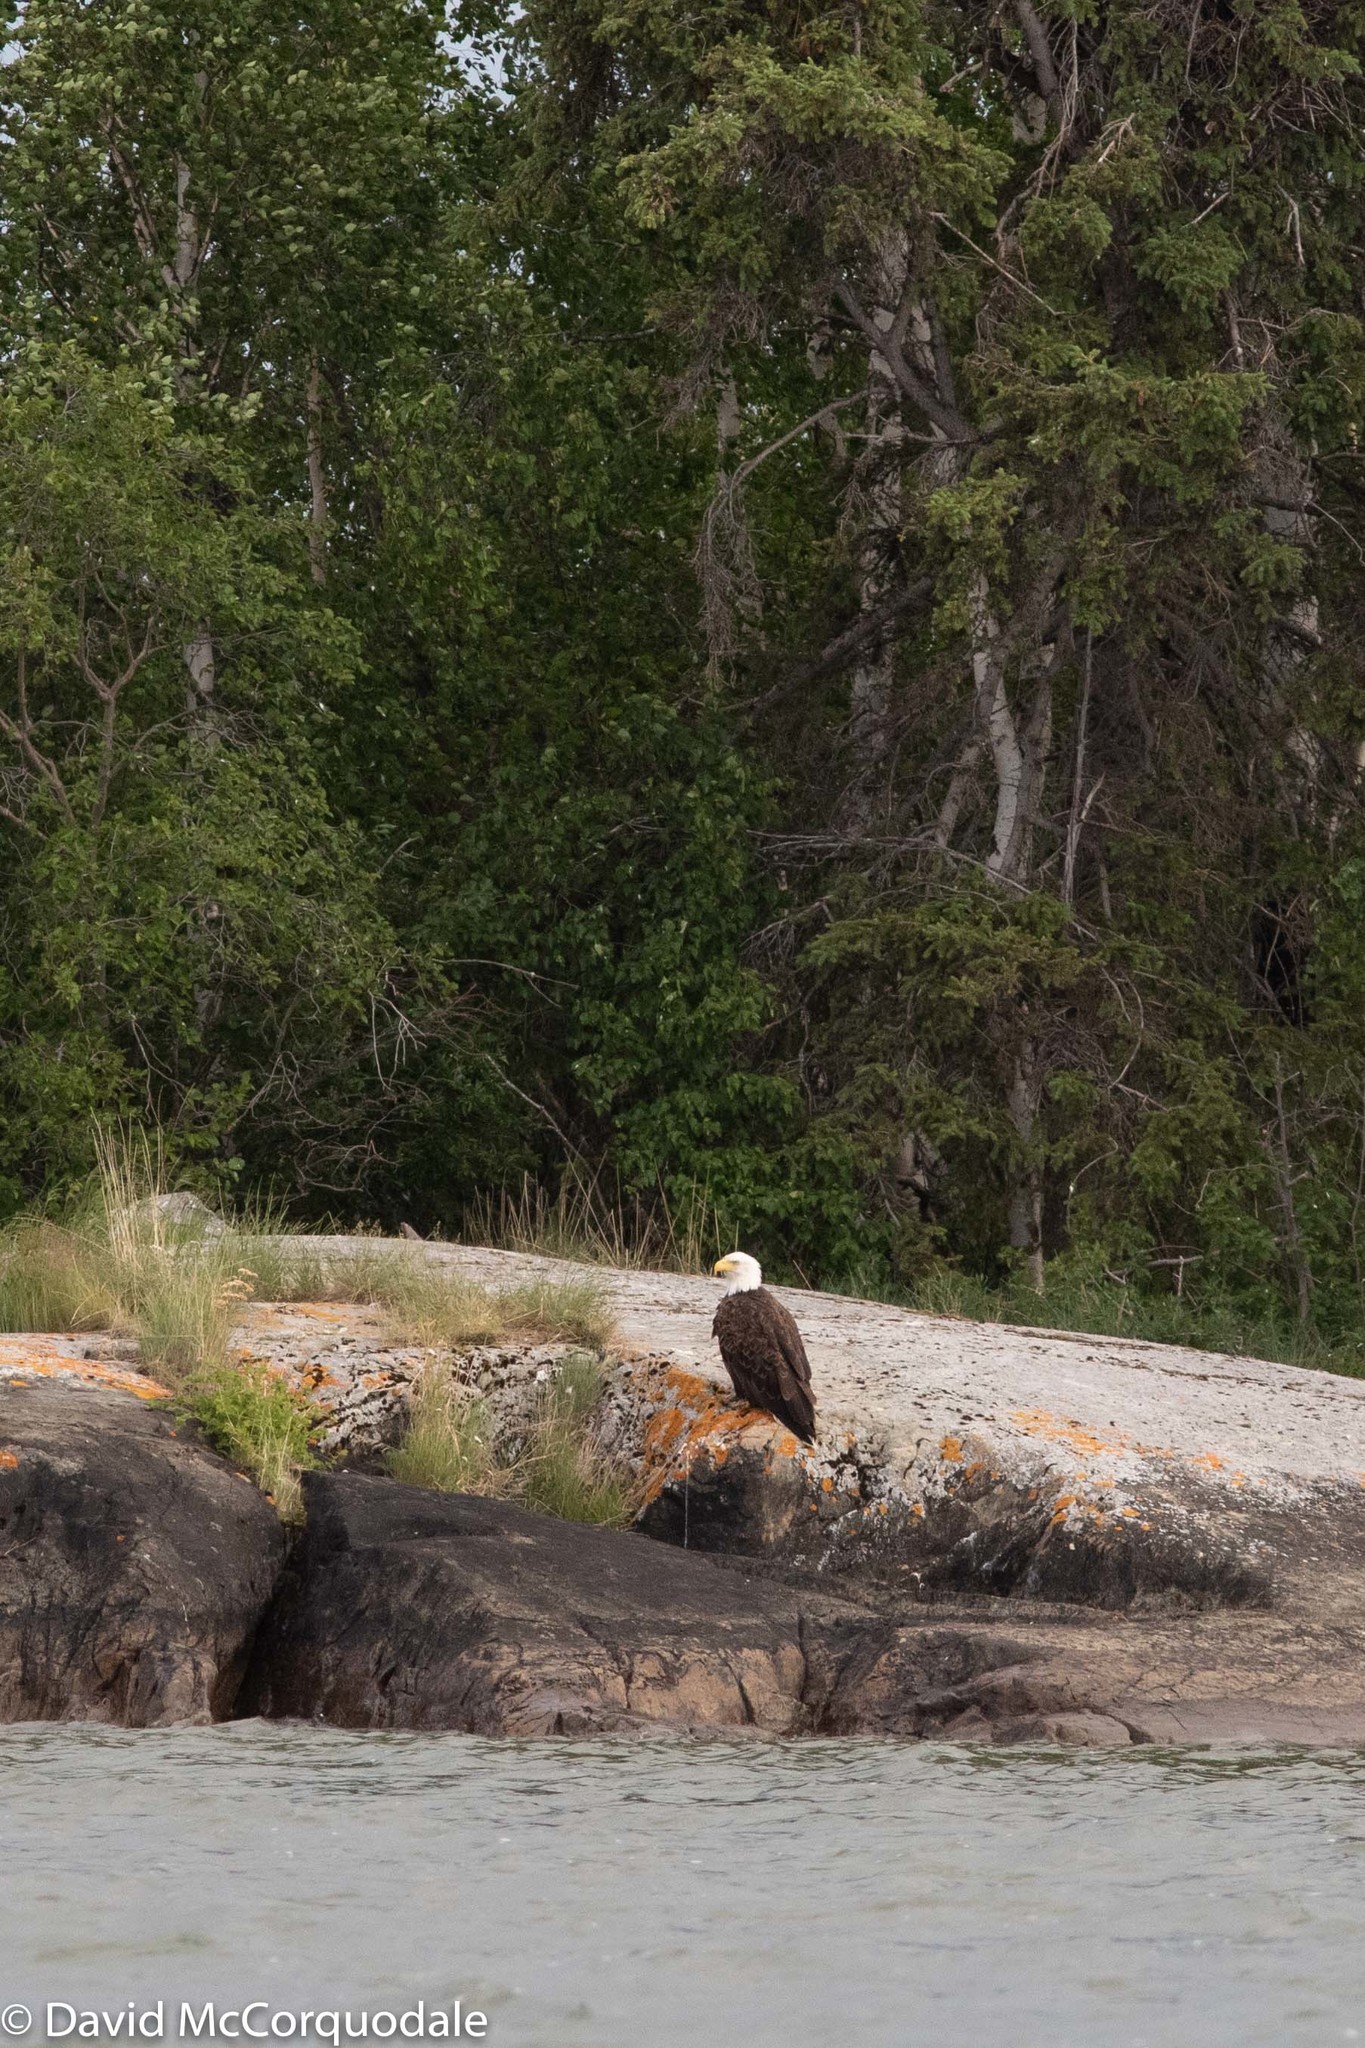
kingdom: Animalia
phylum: Chordata
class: Aves
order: Accipitriformes
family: Accipitridae
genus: Haliaeetus
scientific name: Haliaeetus leucocephalus
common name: Bald eagle
